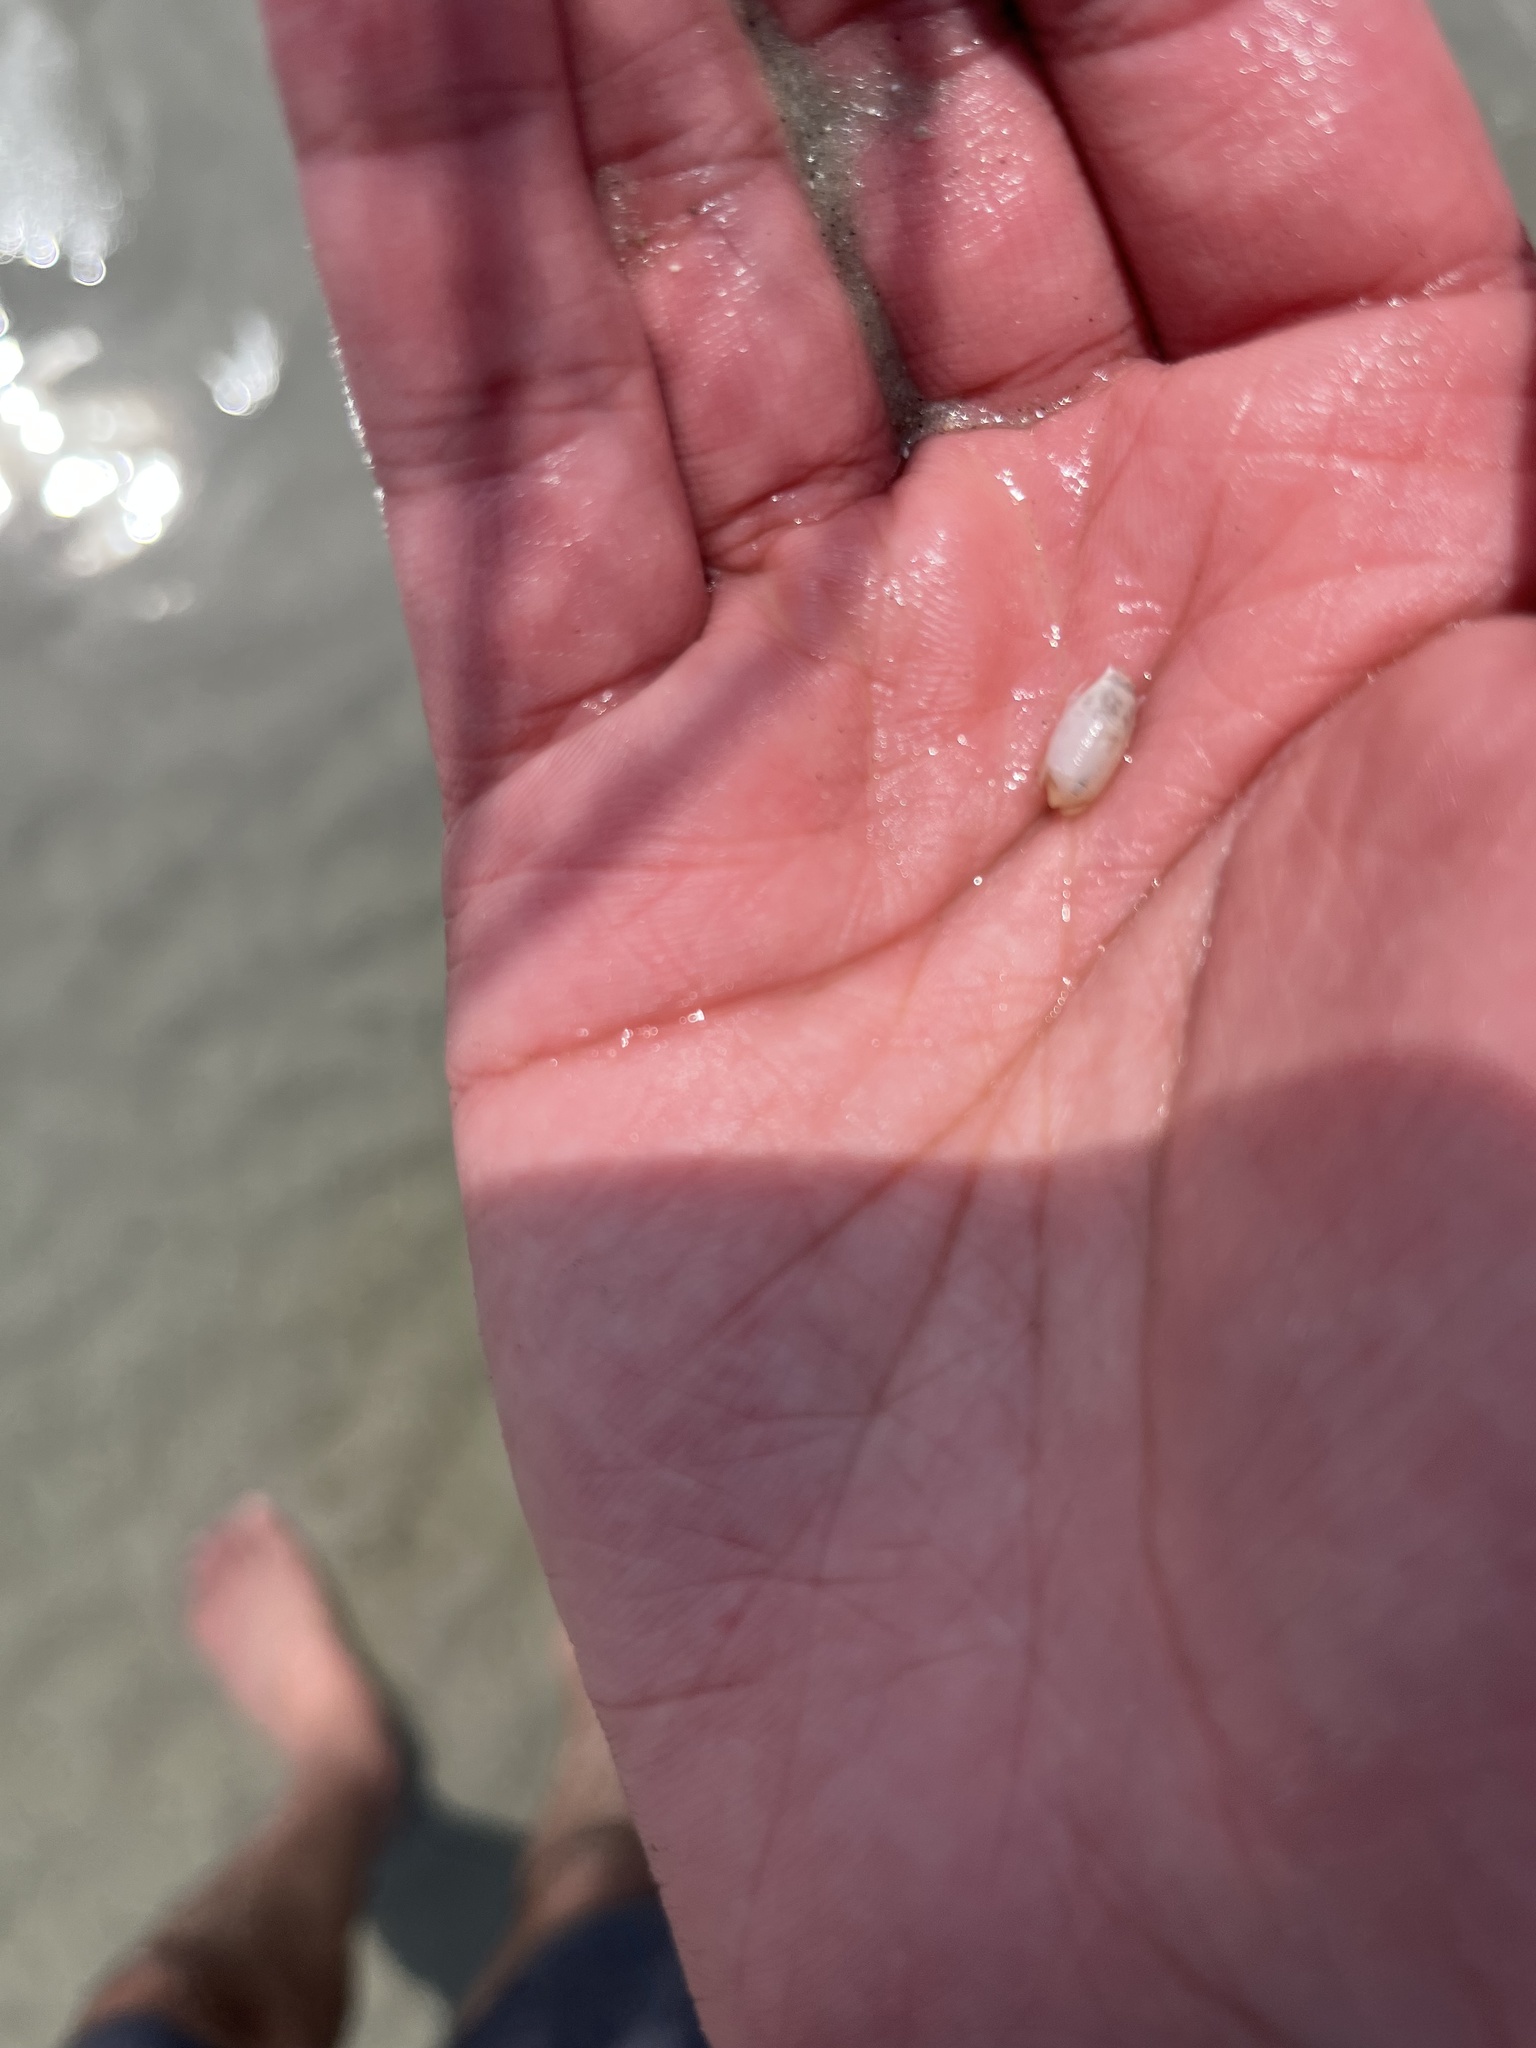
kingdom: Animalia
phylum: Arthropoda
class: Malacostraca
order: Decapoda
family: Hippidae
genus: Emerita
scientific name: Emerita talpoida
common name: Atlantic sand crab
